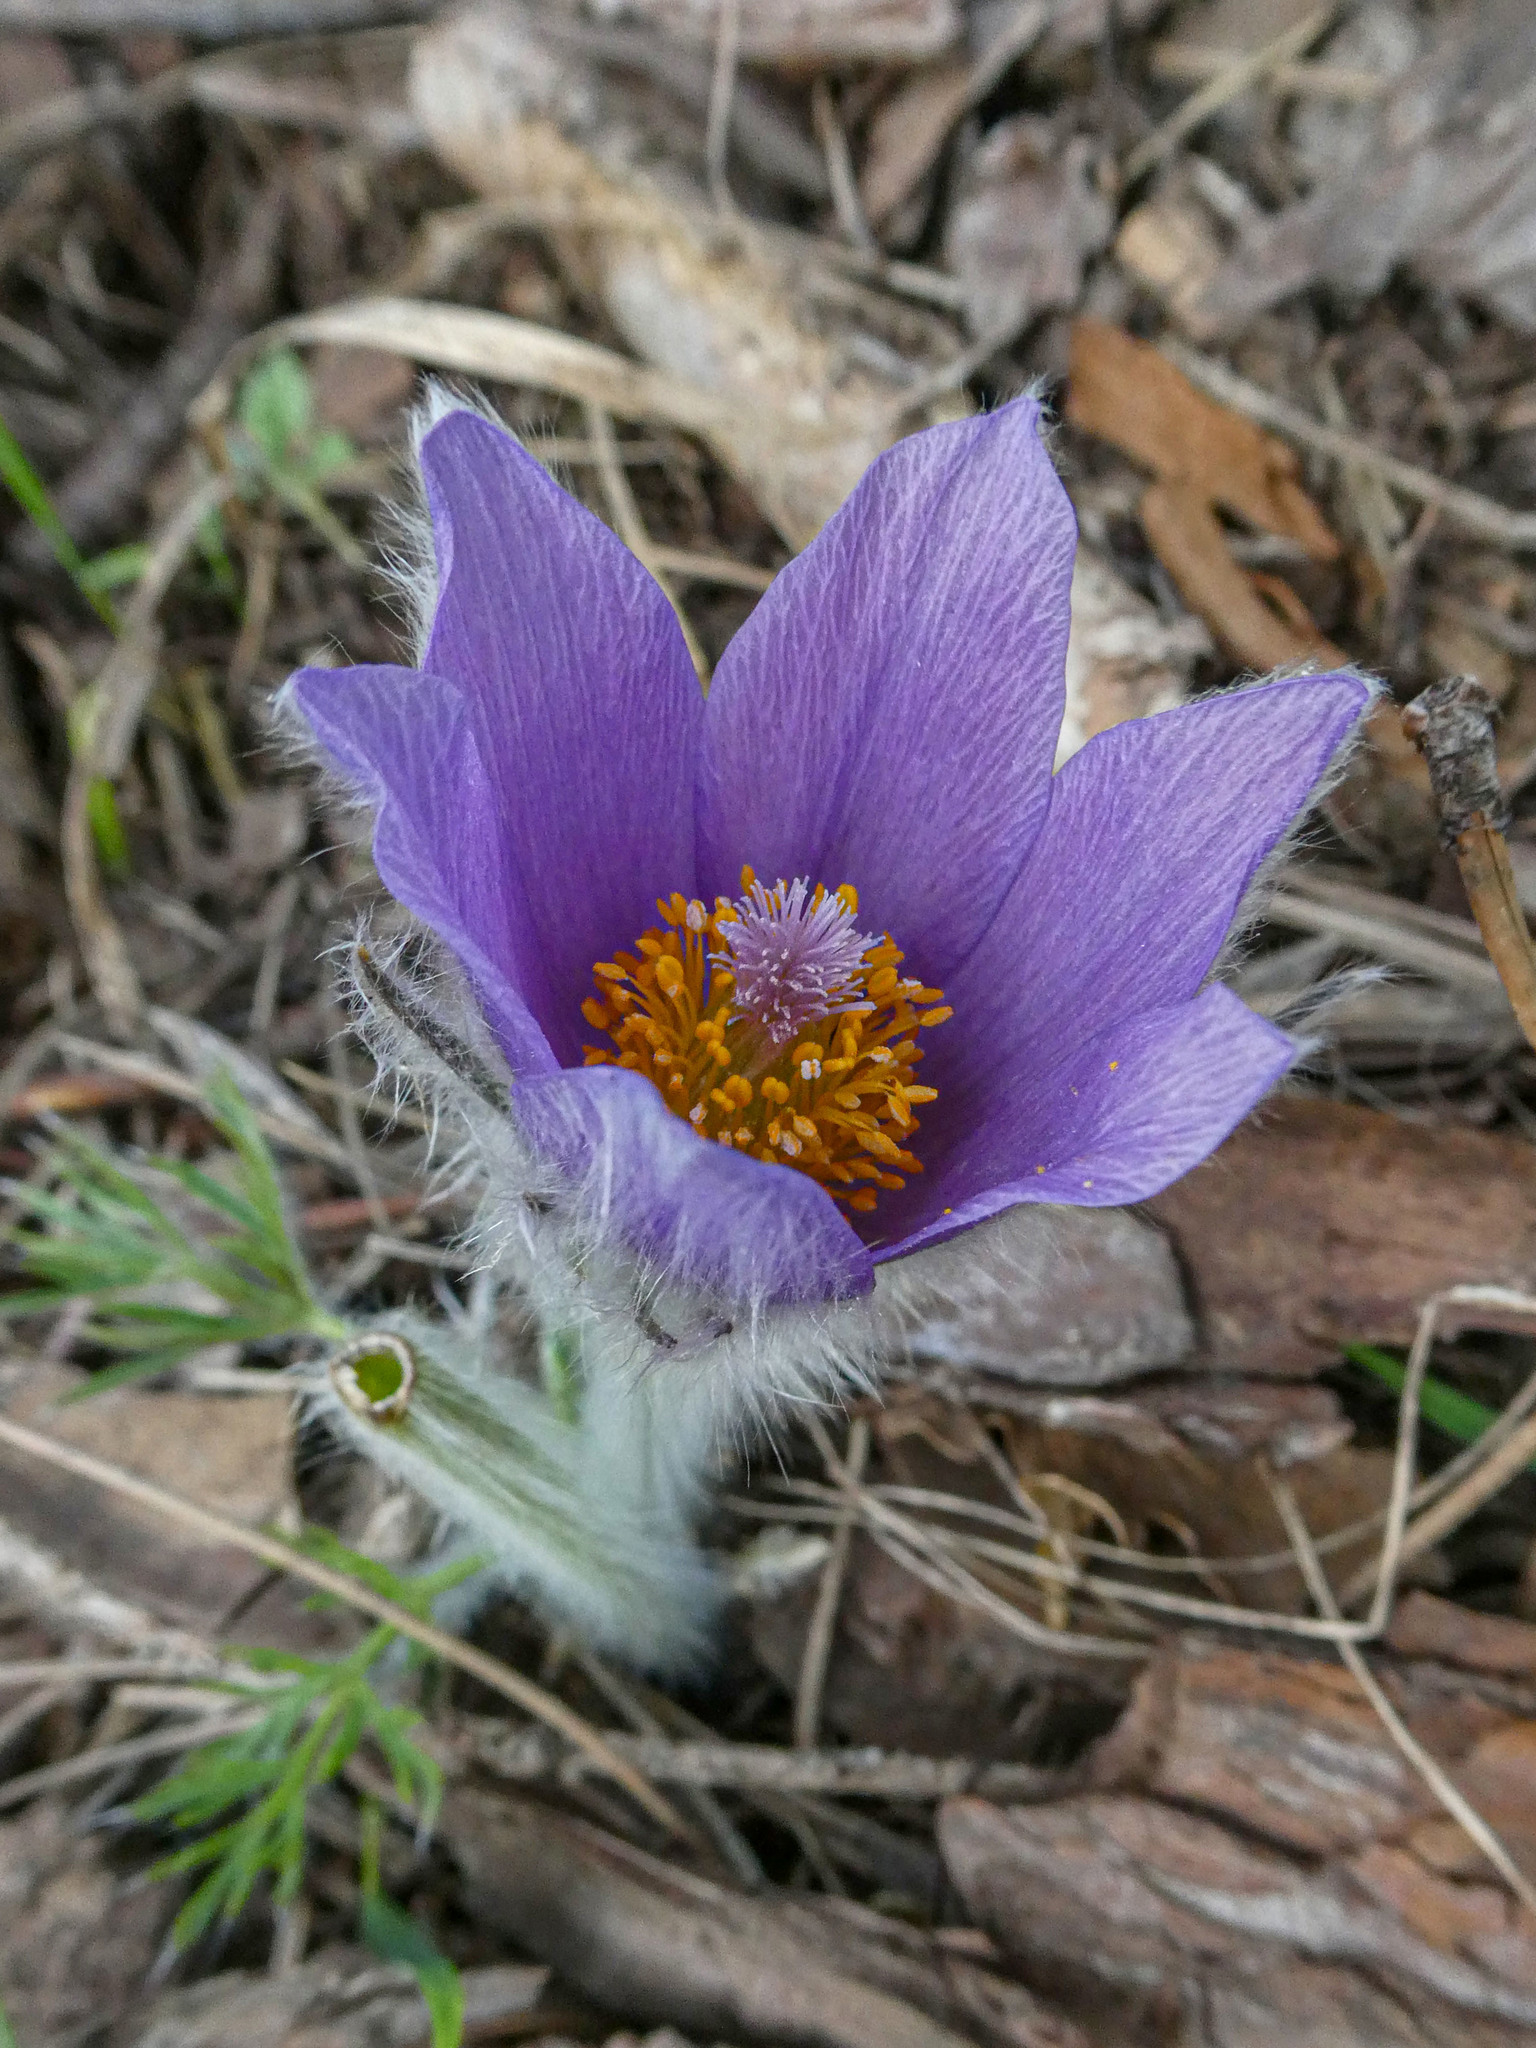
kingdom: Plantae
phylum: Tracheophyta
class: Magnoliopsida
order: Ranunculales
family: Ranunculaceae
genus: Pulsatilla
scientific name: Pulsatilla grandis
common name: Greater pasque flower
